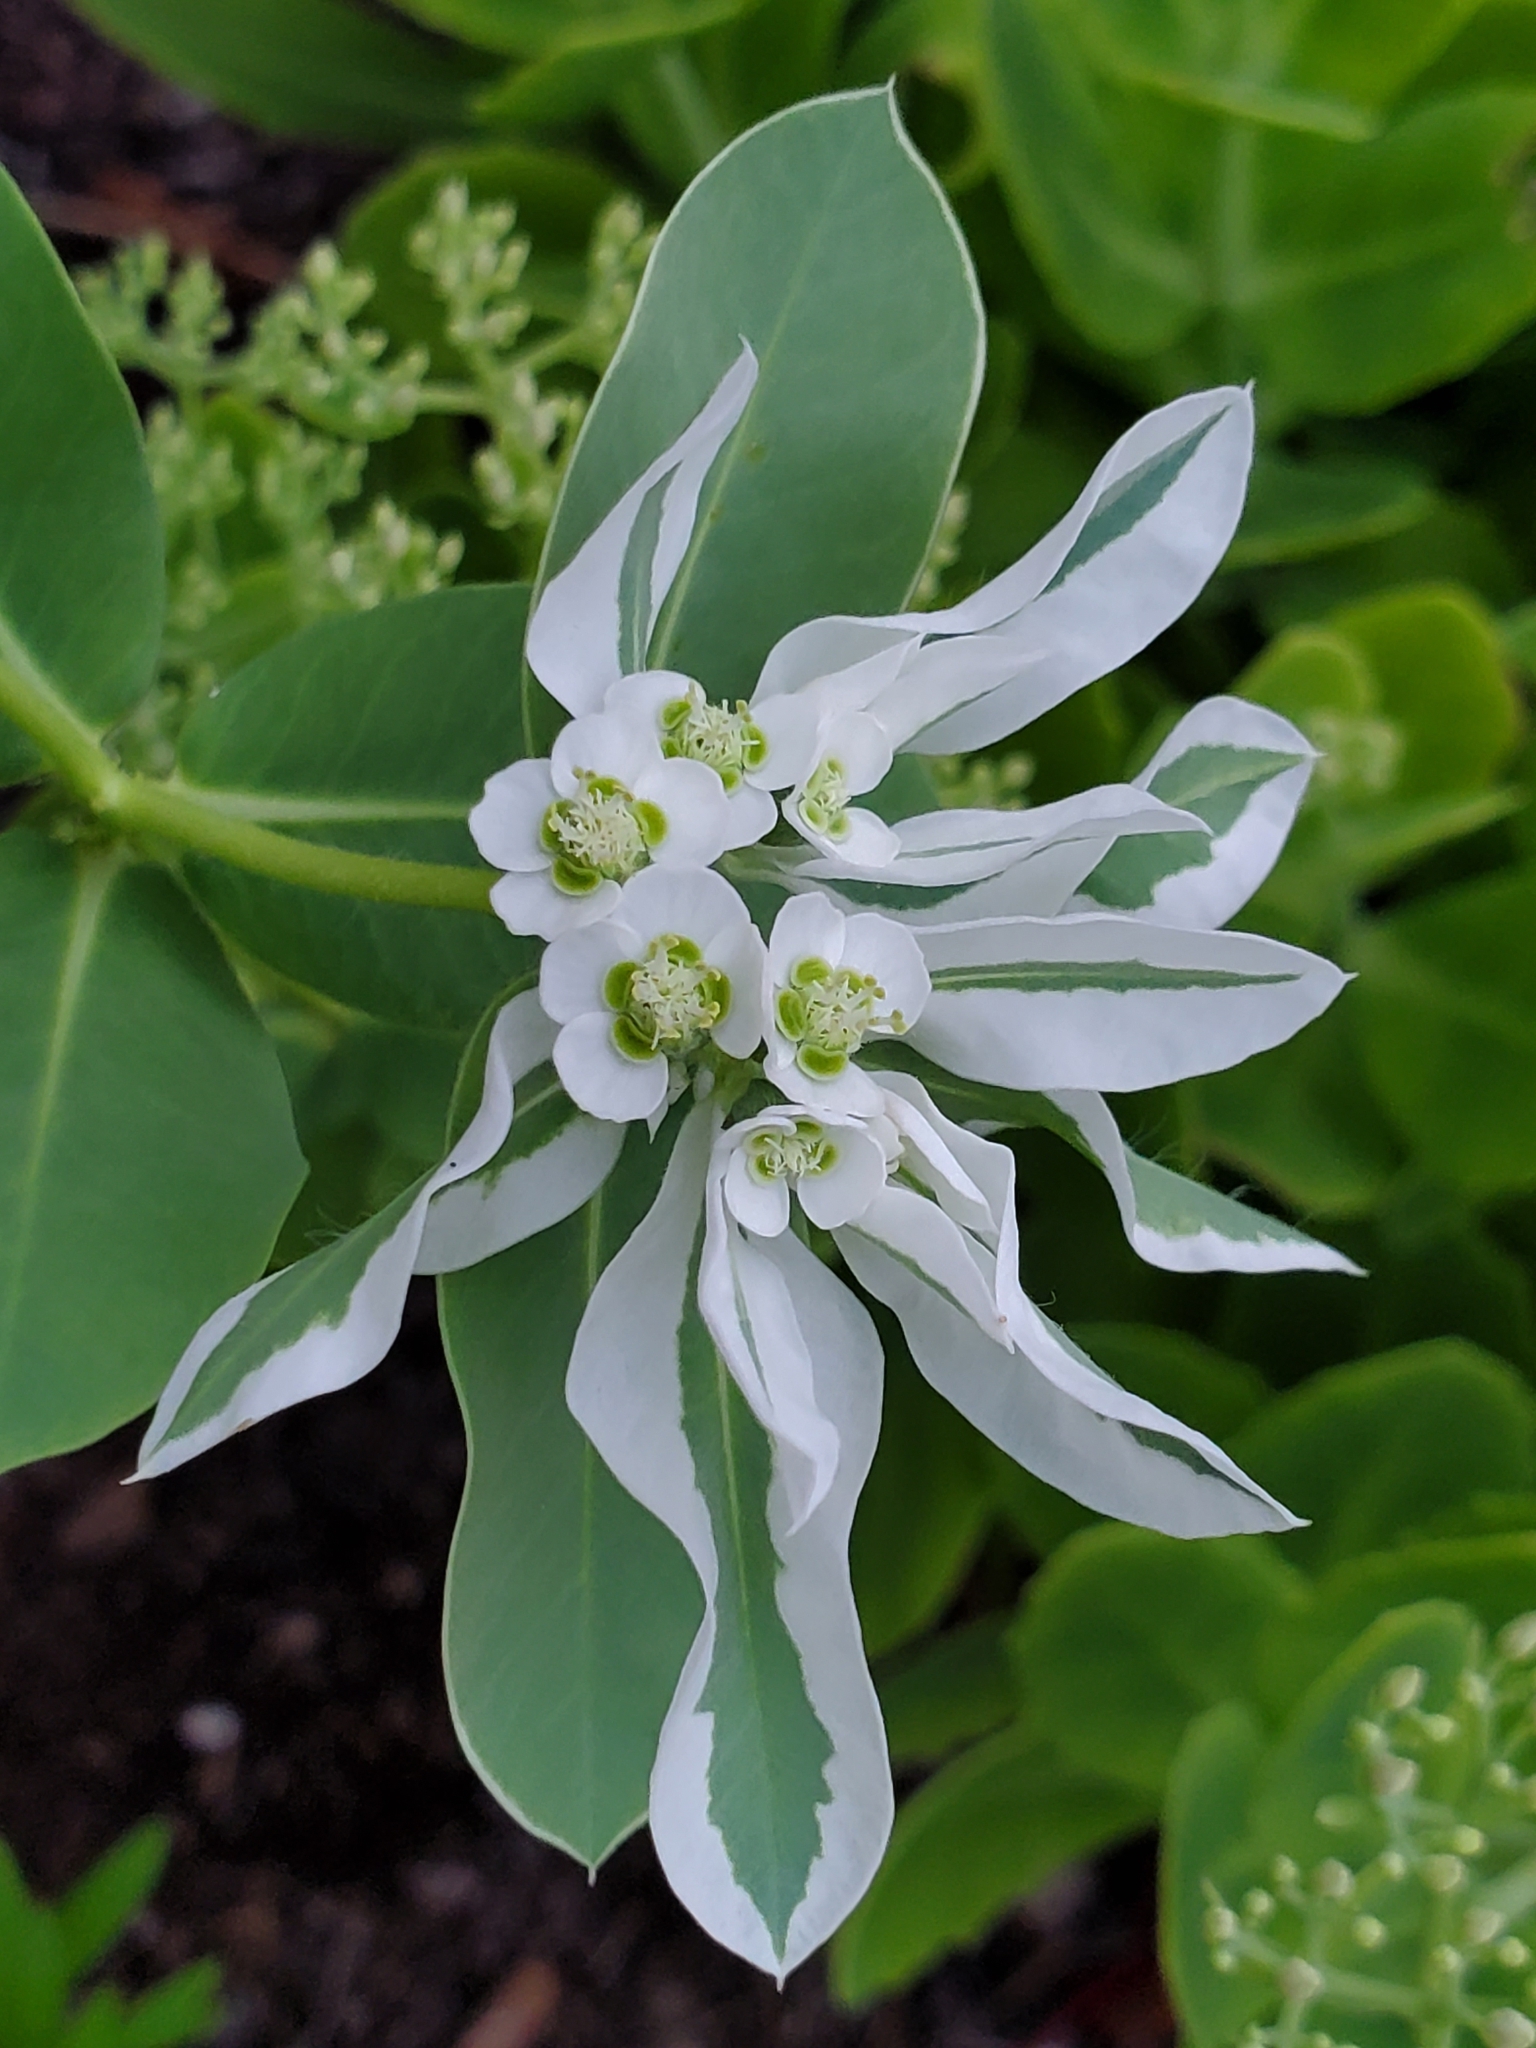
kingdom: Plantae
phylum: Tracheophyta
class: Magnoliopsida
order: Malpighiales
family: Euphorbiaceae
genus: Euphorbia
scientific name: Euphorbia marginata
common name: Ghostweed
